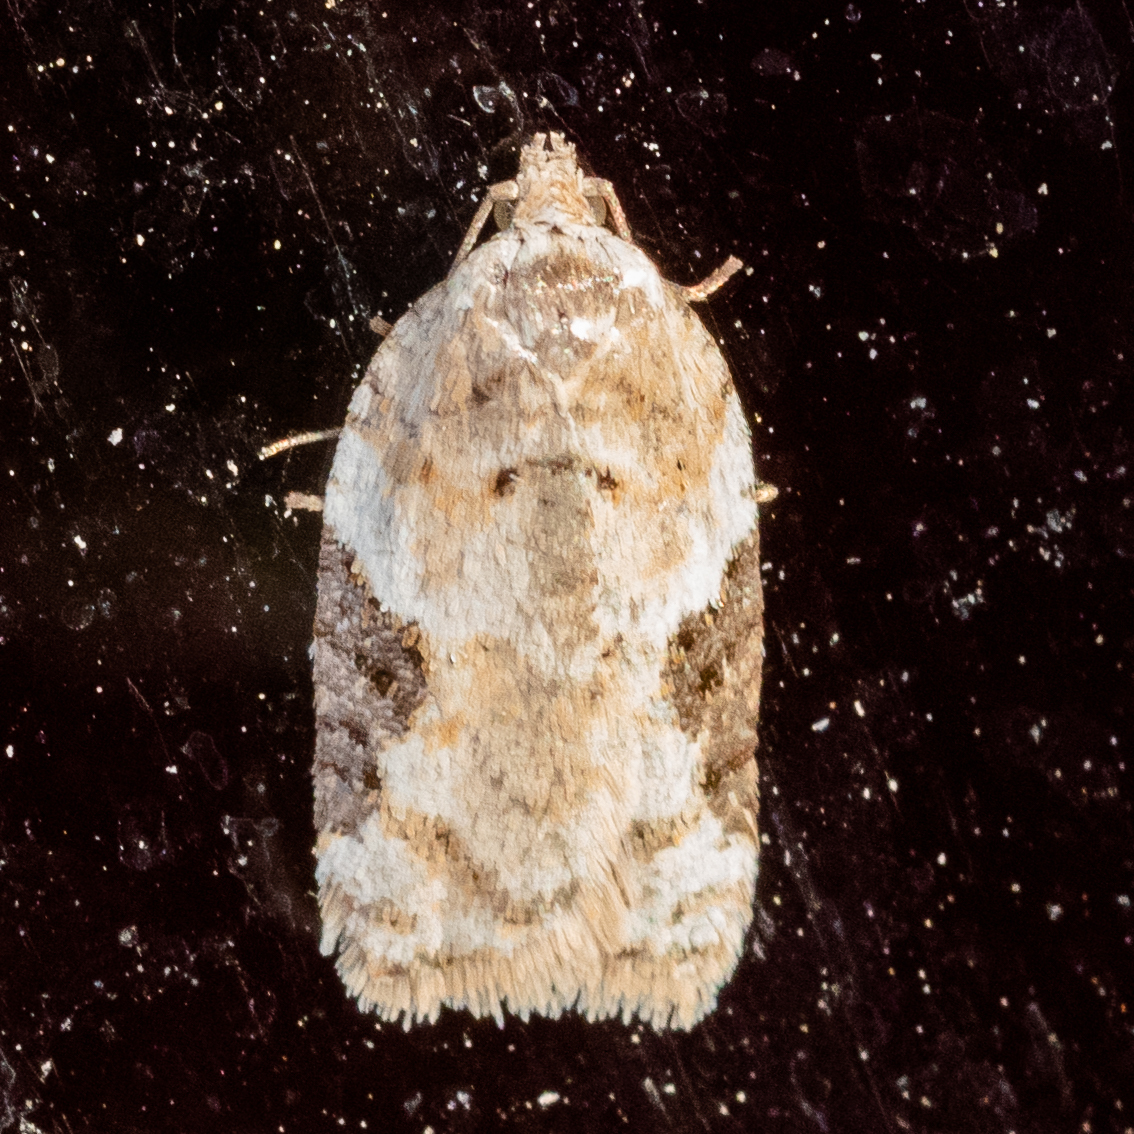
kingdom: Animalia
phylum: Arthropoda
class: Insecta
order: Lepidoptera
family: Tortricidae
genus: Argyrotaenia
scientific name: Argyrotaenia mariana
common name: Gray-banded leafroller moth
